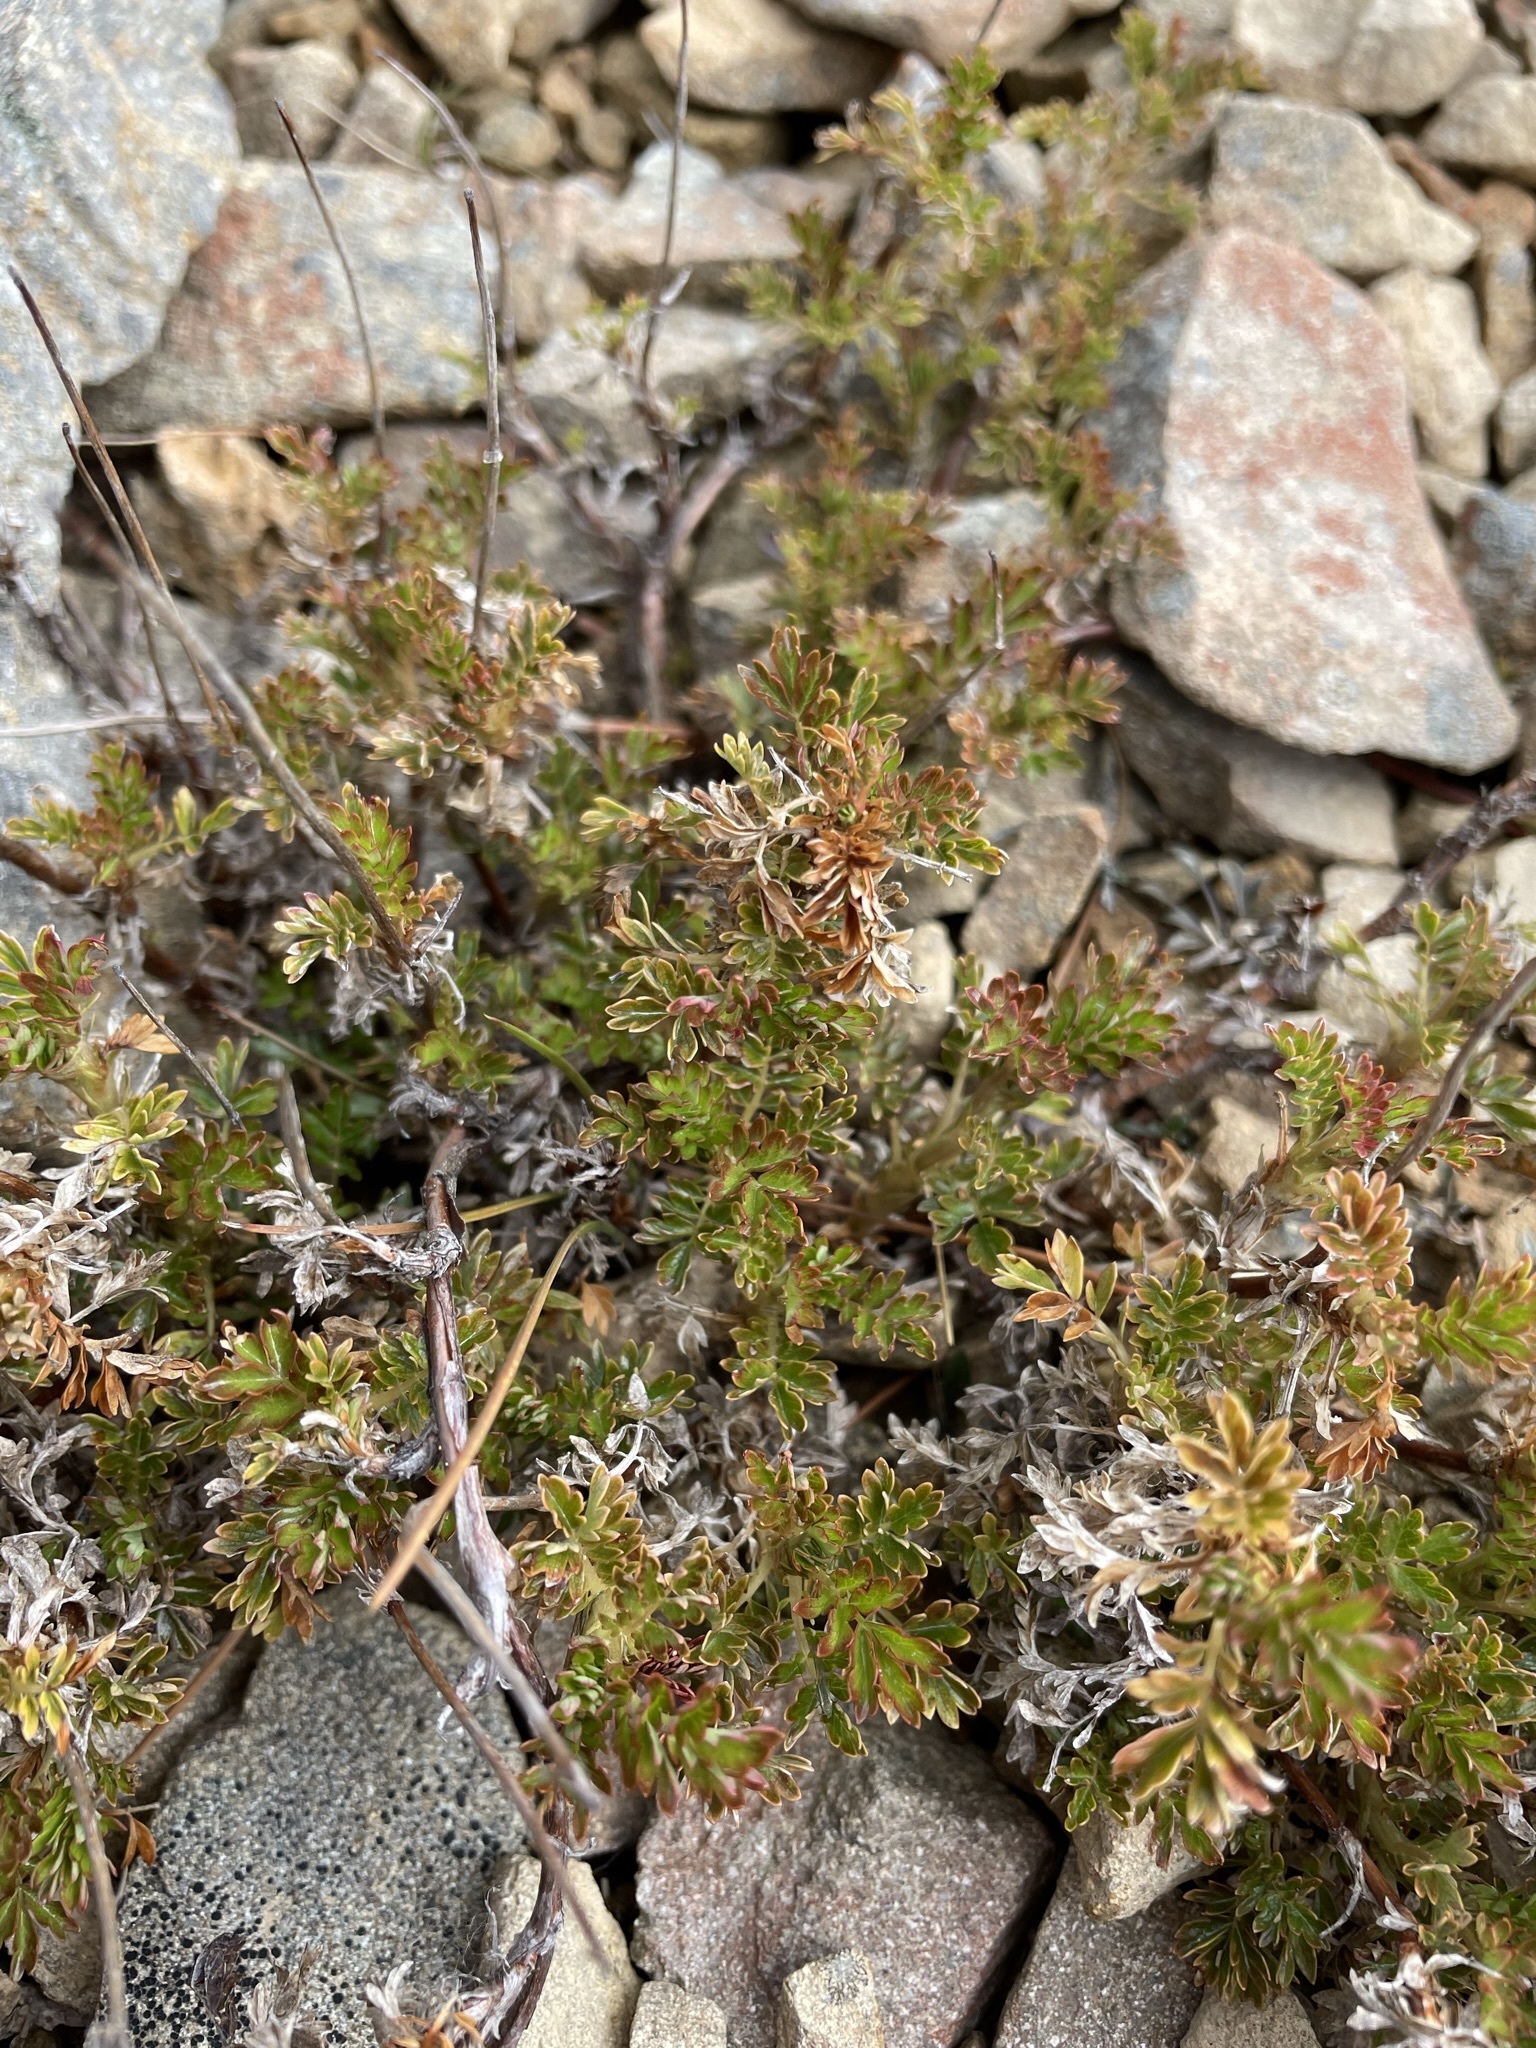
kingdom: Plantae
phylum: Tracheophyta
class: Magnoliopsida
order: Rosales
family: Rosaceae
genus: Acaena
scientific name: Acaena glabra
